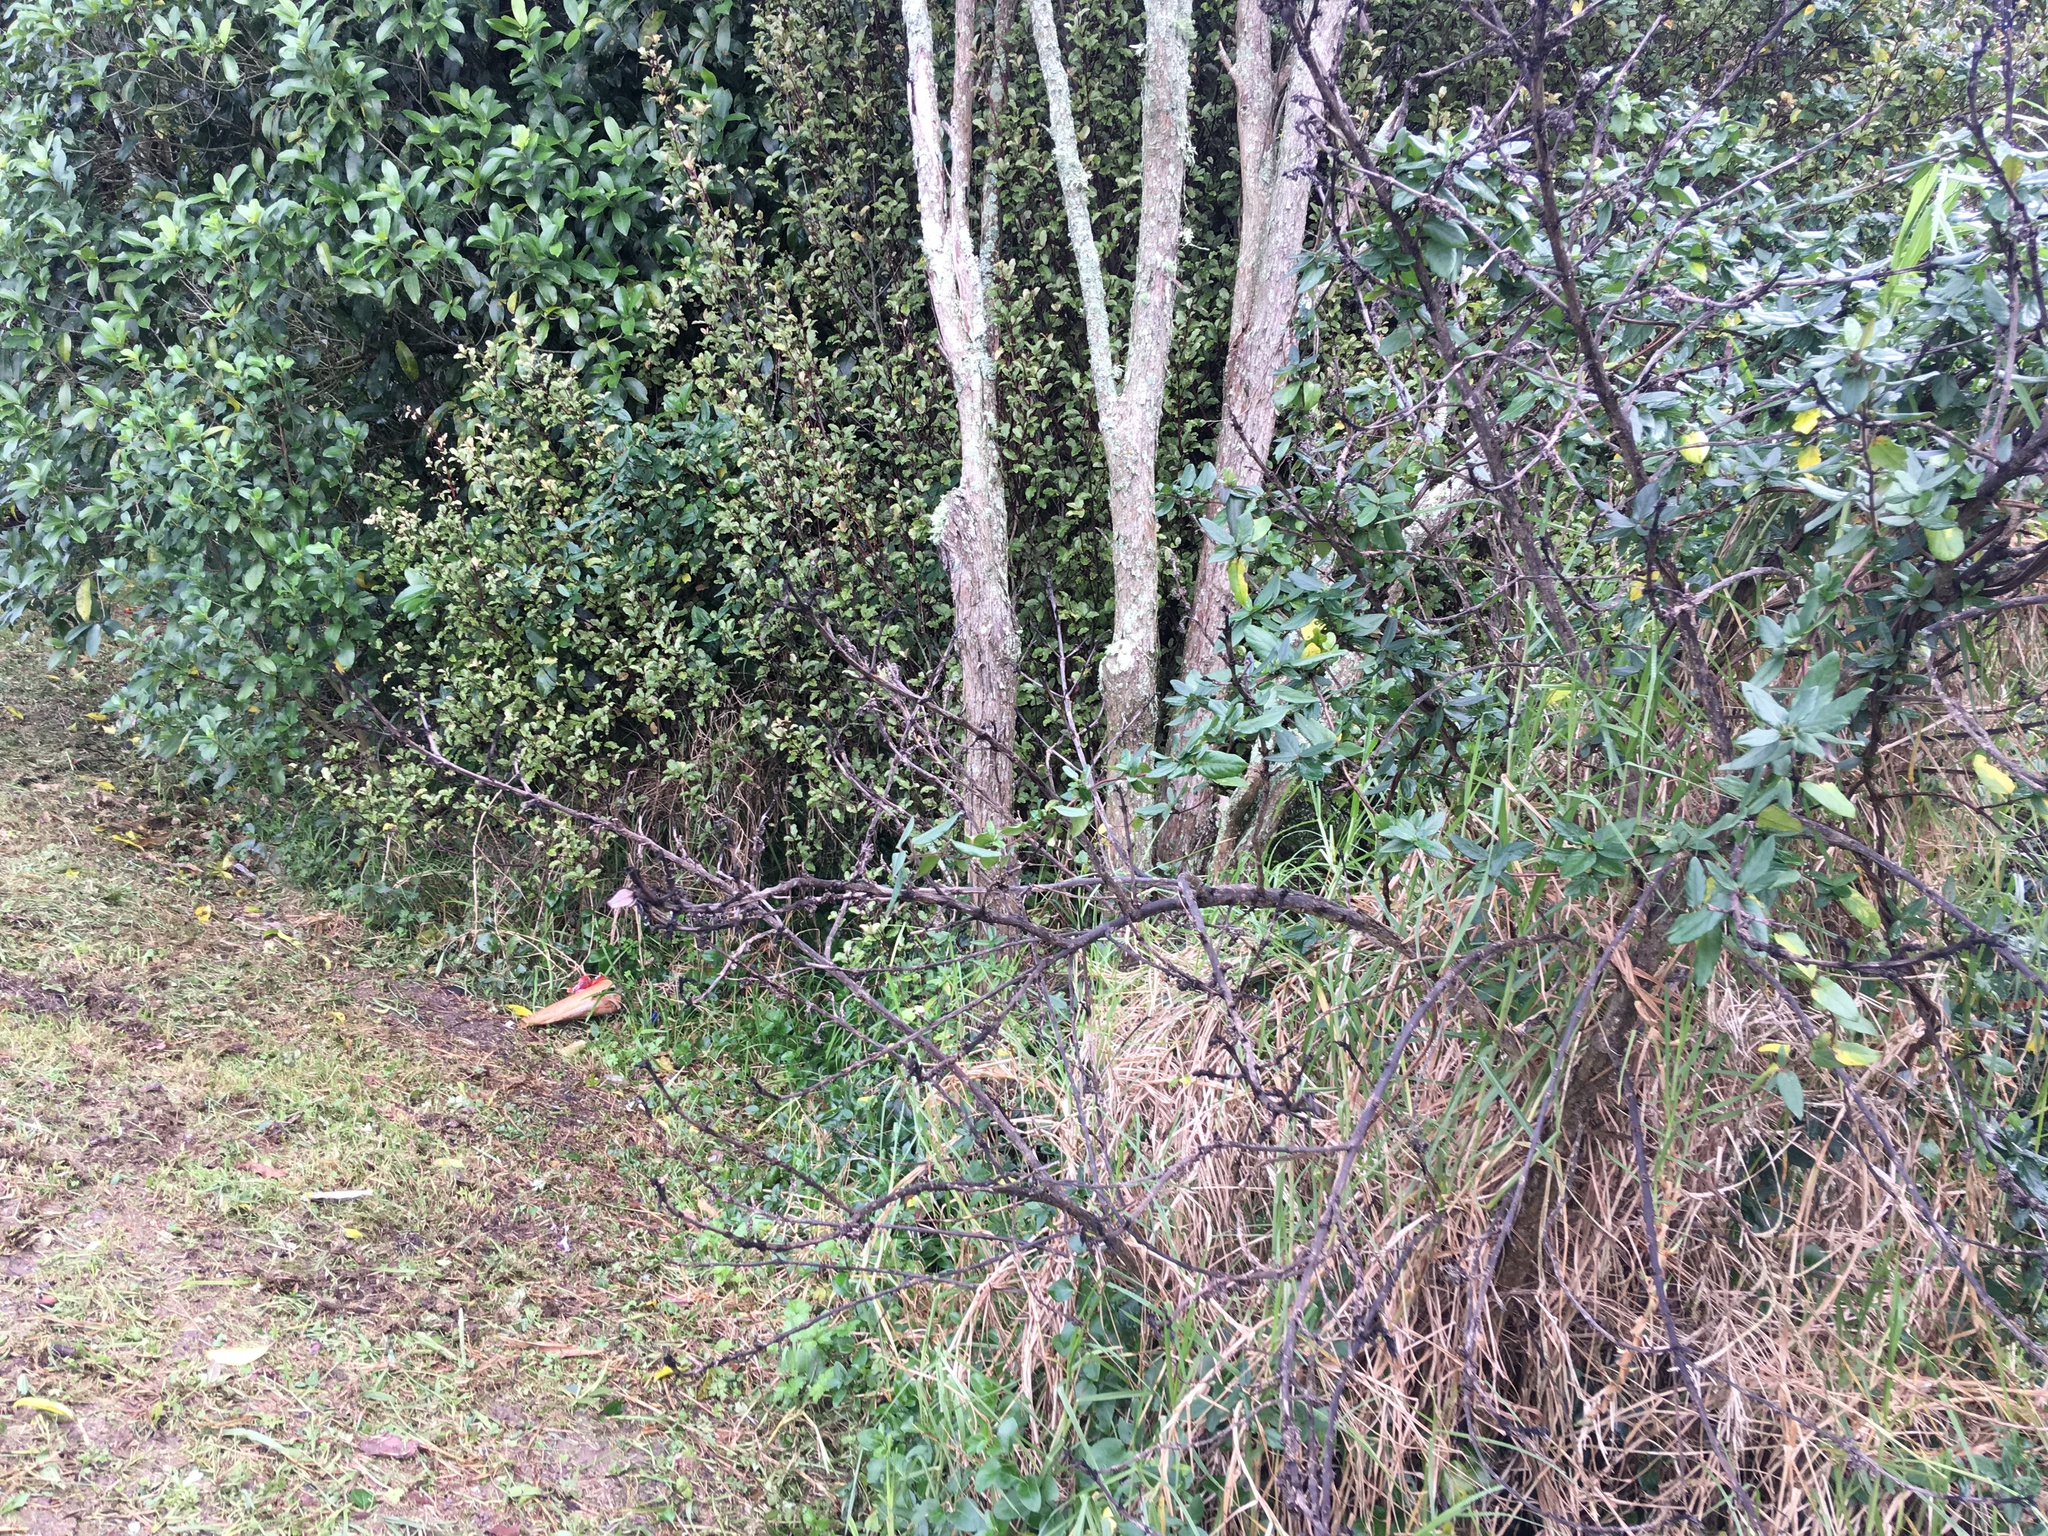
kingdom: Plantae
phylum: Tracheophyta
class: Liliopsida
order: Poales
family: Poaceae
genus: Cenchrus
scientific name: Cenchrus clandestinus
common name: Kikuyugrass
